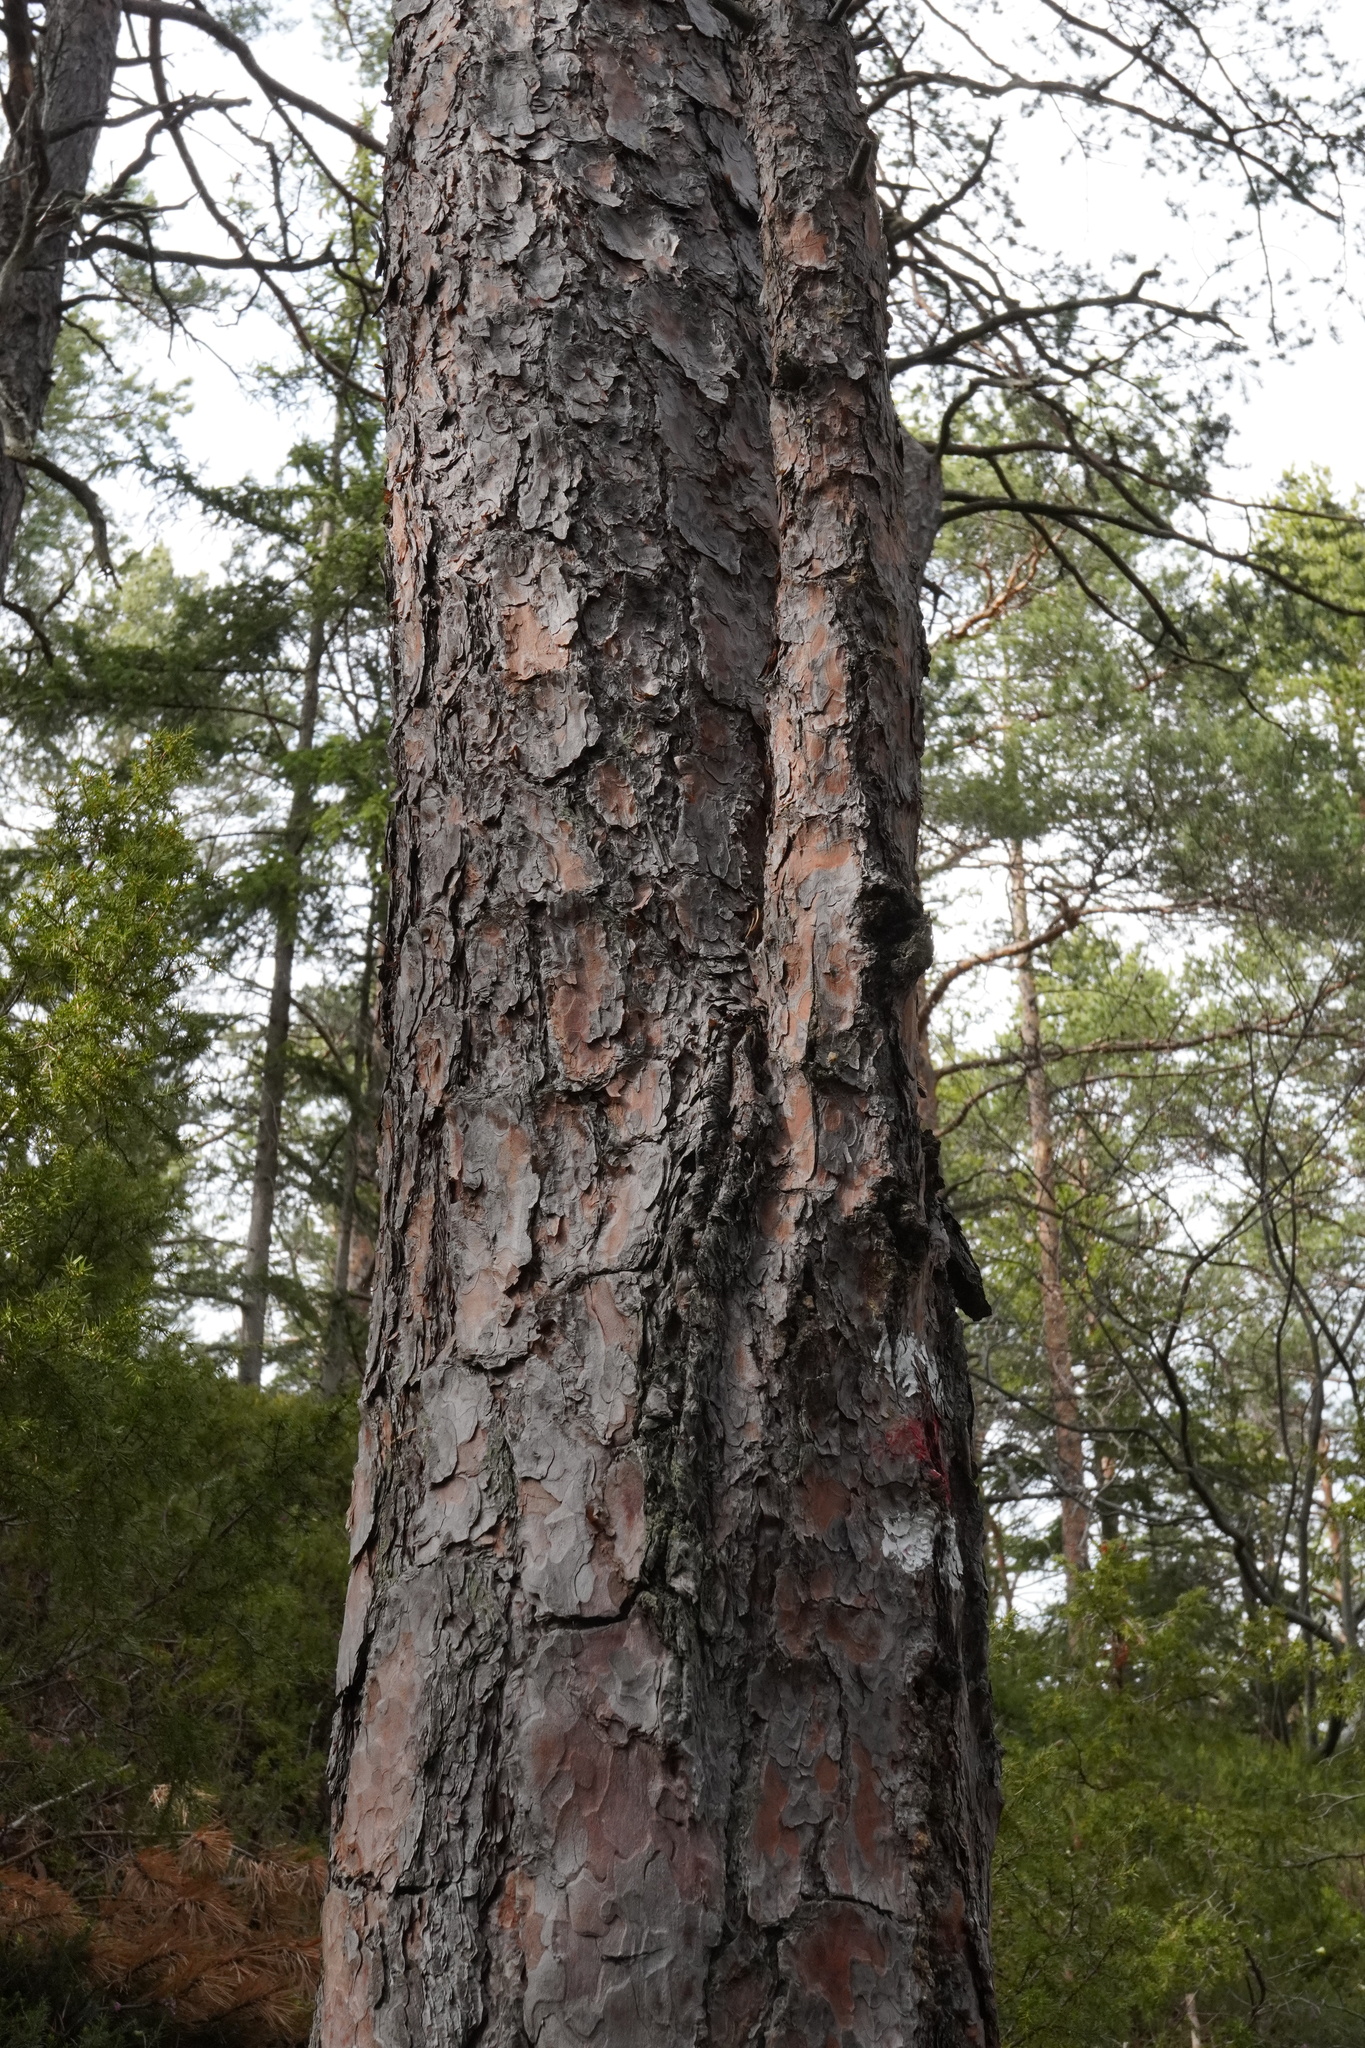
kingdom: Plantae
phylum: Tracheophyta
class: Pinopsida
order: Pinales
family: Pinaceae
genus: Pinus
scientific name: Pinus sylvestris
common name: Scots pine
